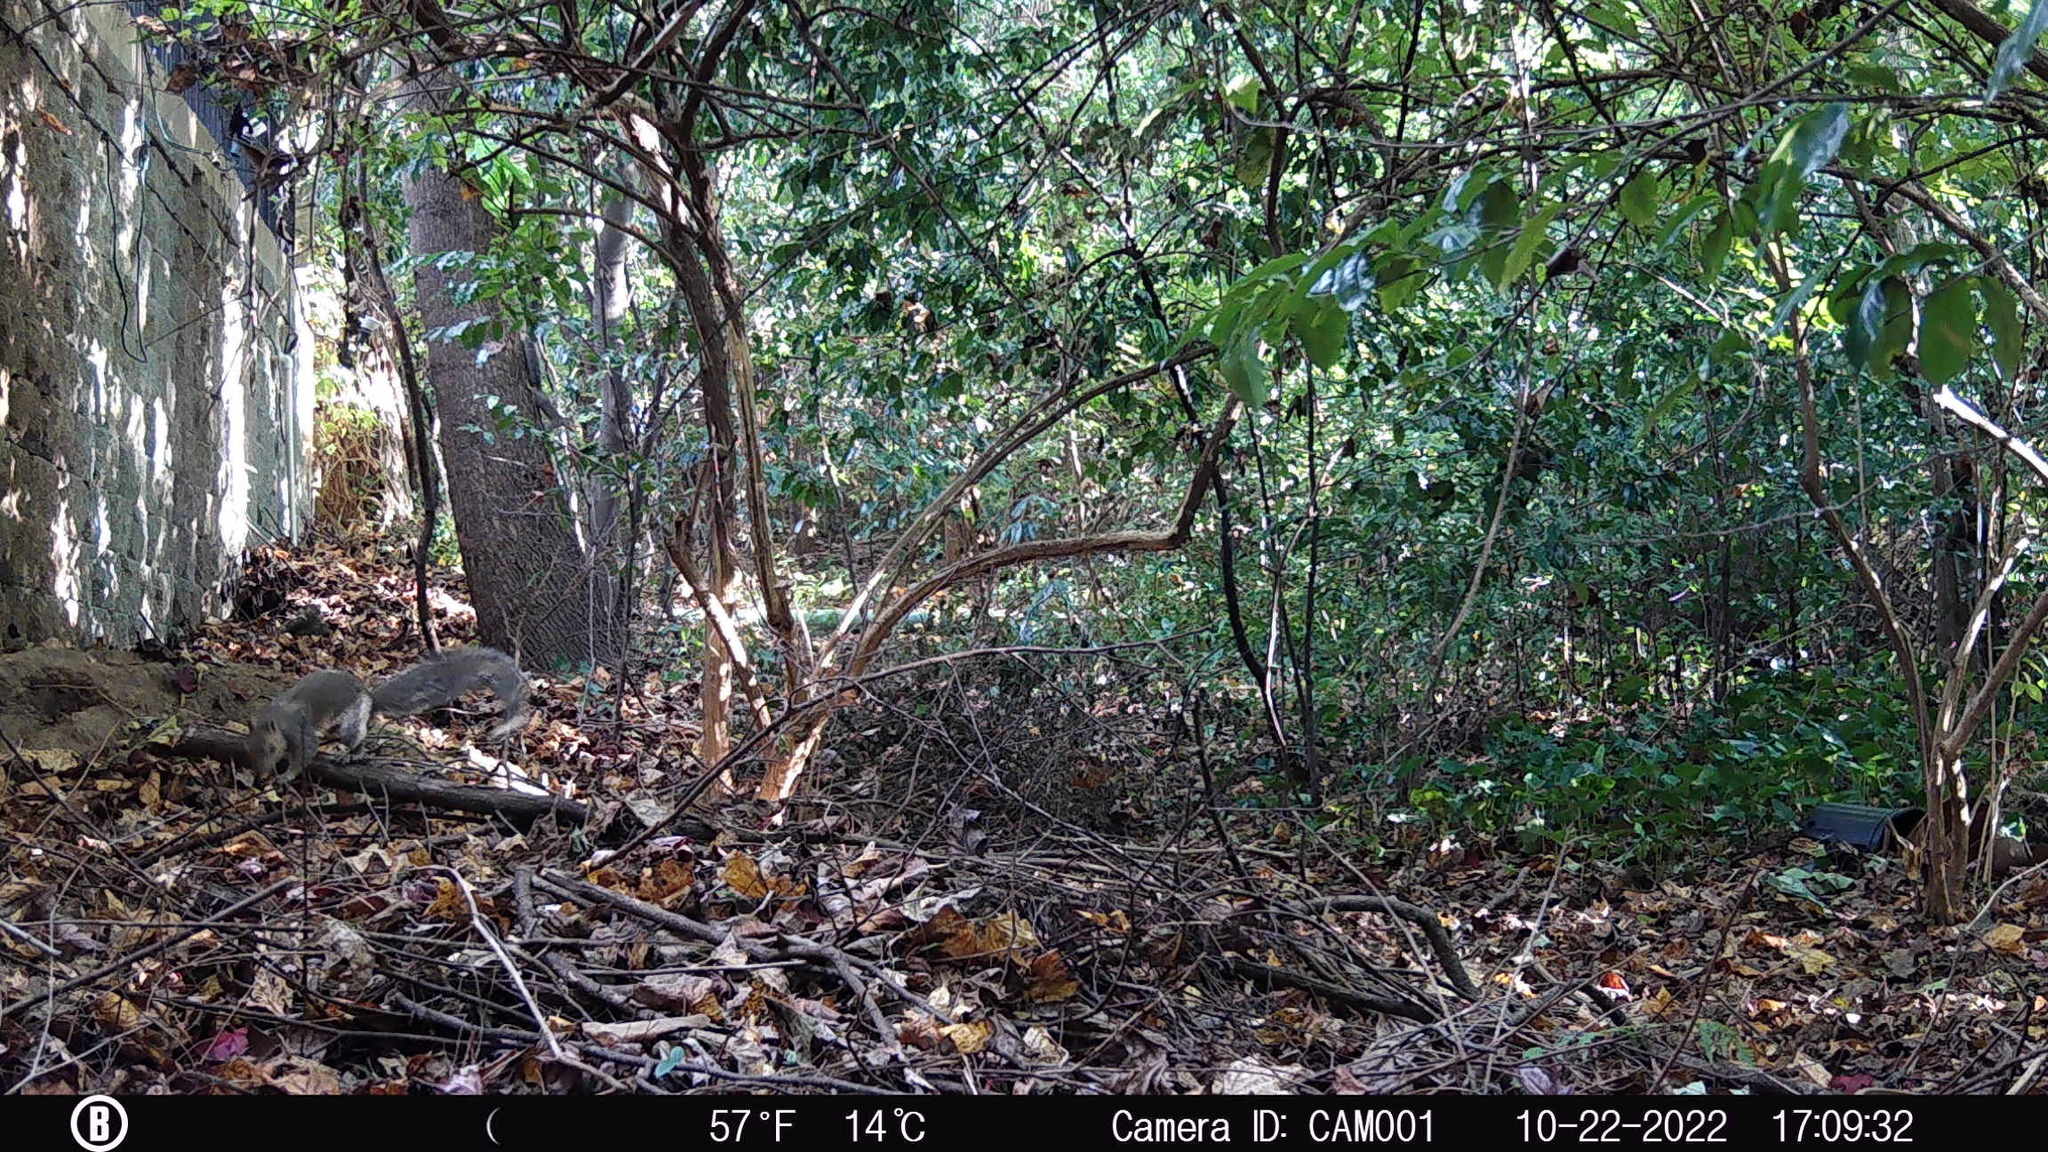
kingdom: Animalia
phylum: Chordata
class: Mammalia
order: Rodentia
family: Sciuridae
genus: Sciurus
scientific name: Sciurus carolinensis
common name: Eastern gray squirrel
